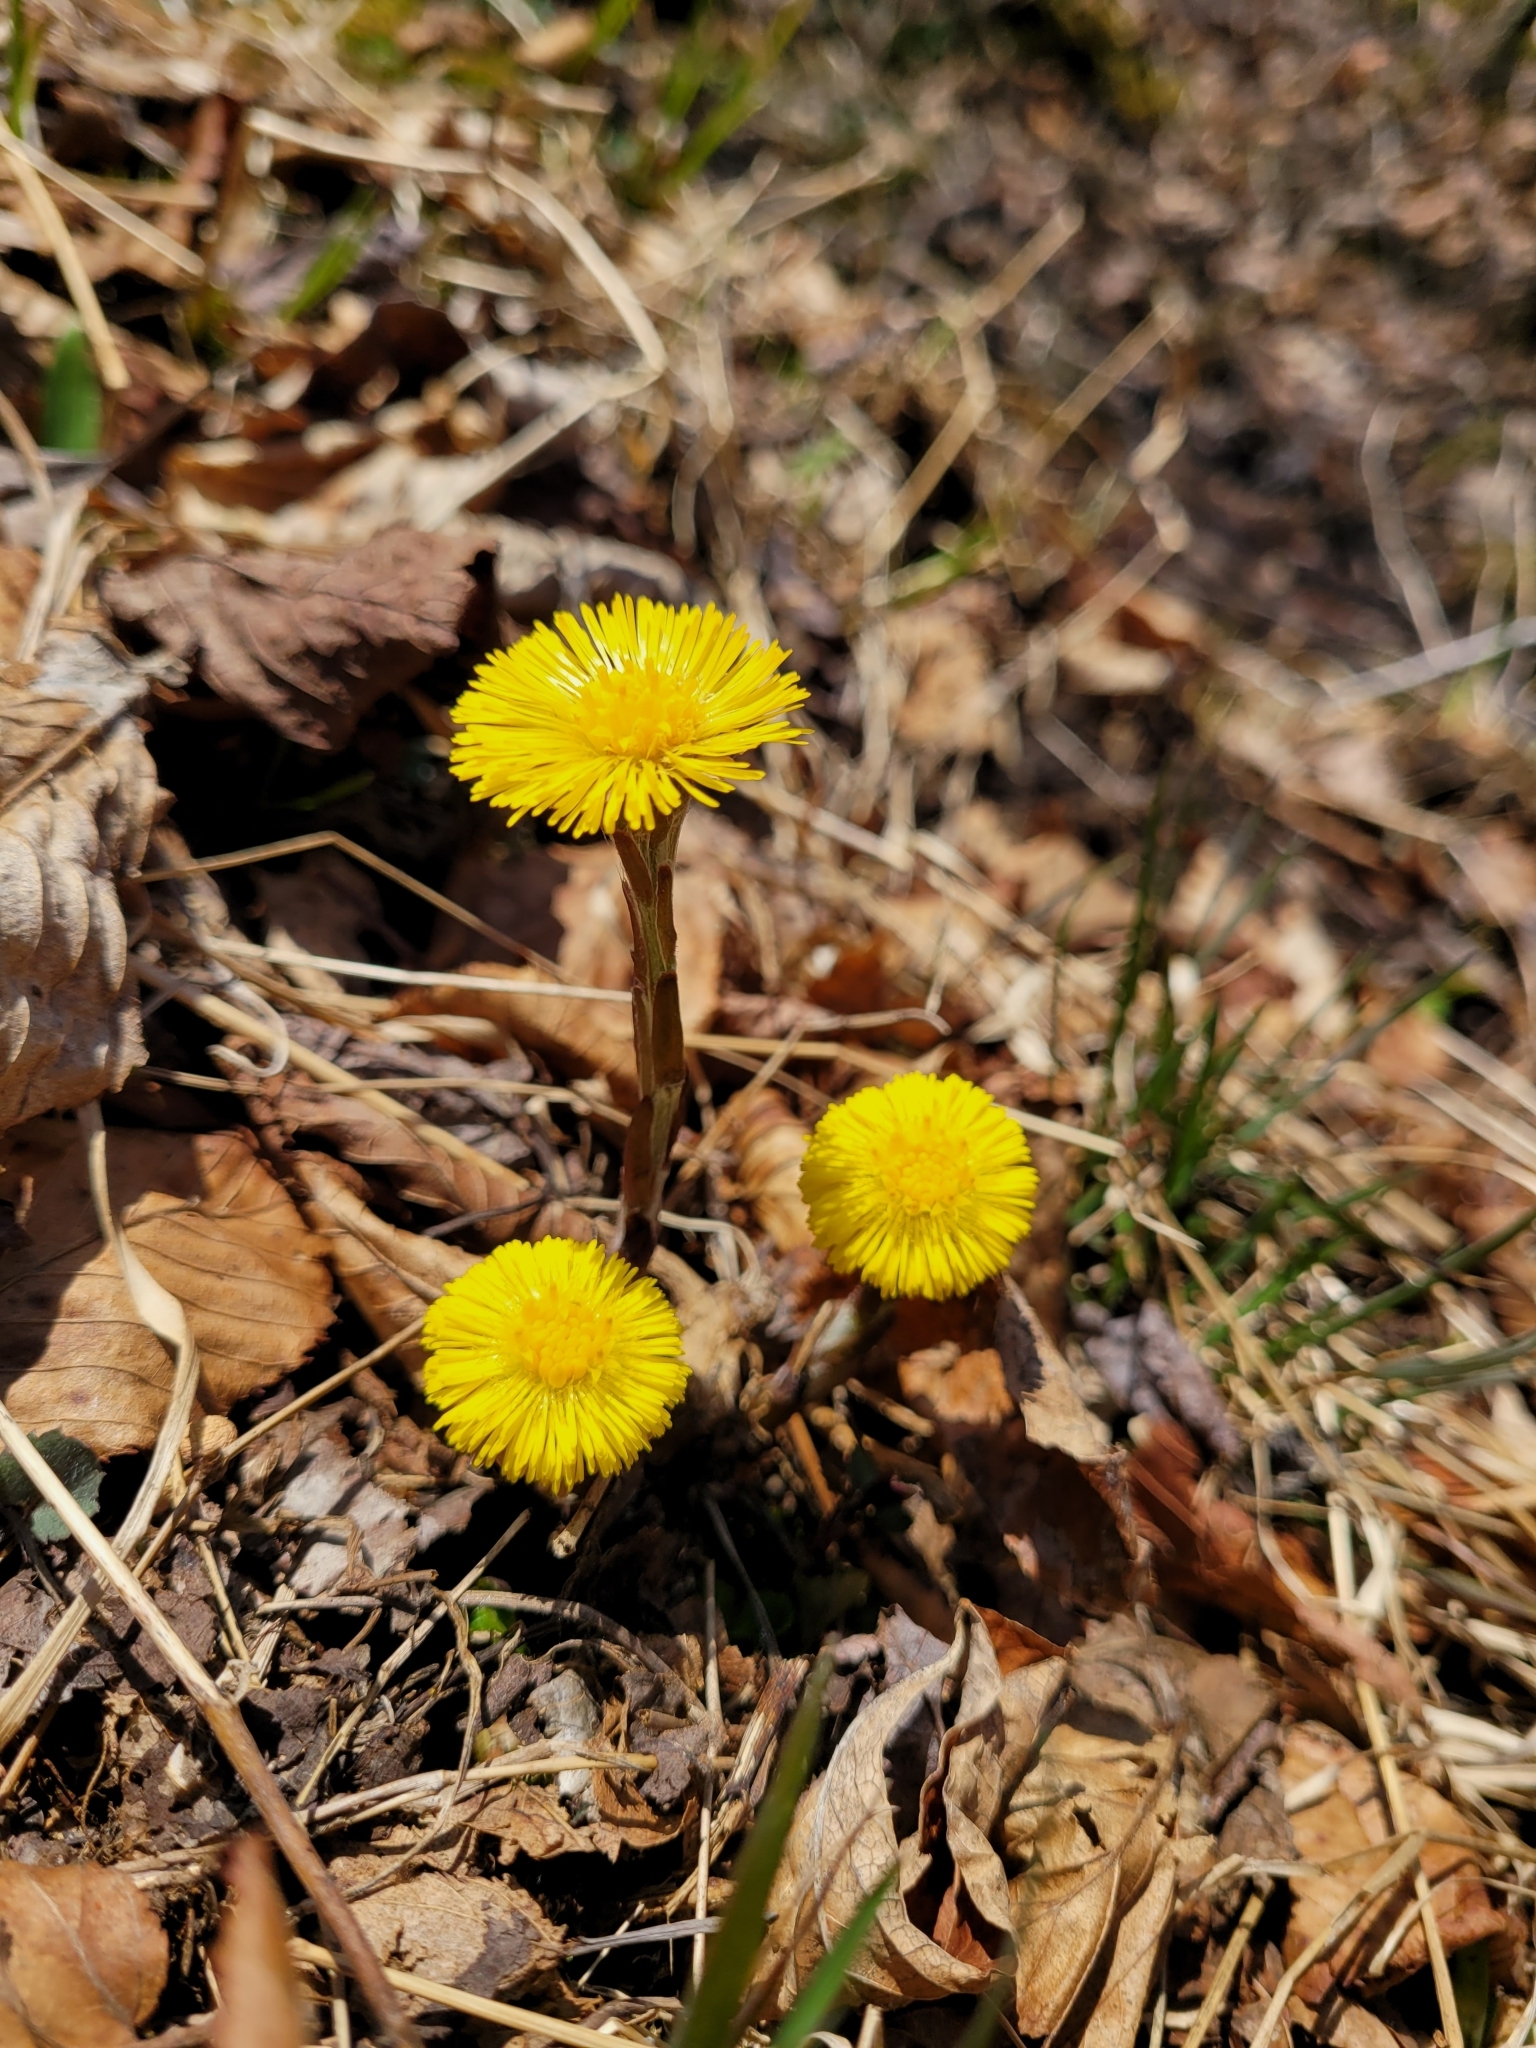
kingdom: Plantae
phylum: Tracheophyta
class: Magnoliopsida
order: Asterales
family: Asteraceae
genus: Tussilago
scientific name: Tussilago farfara
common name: Coltsfoot
